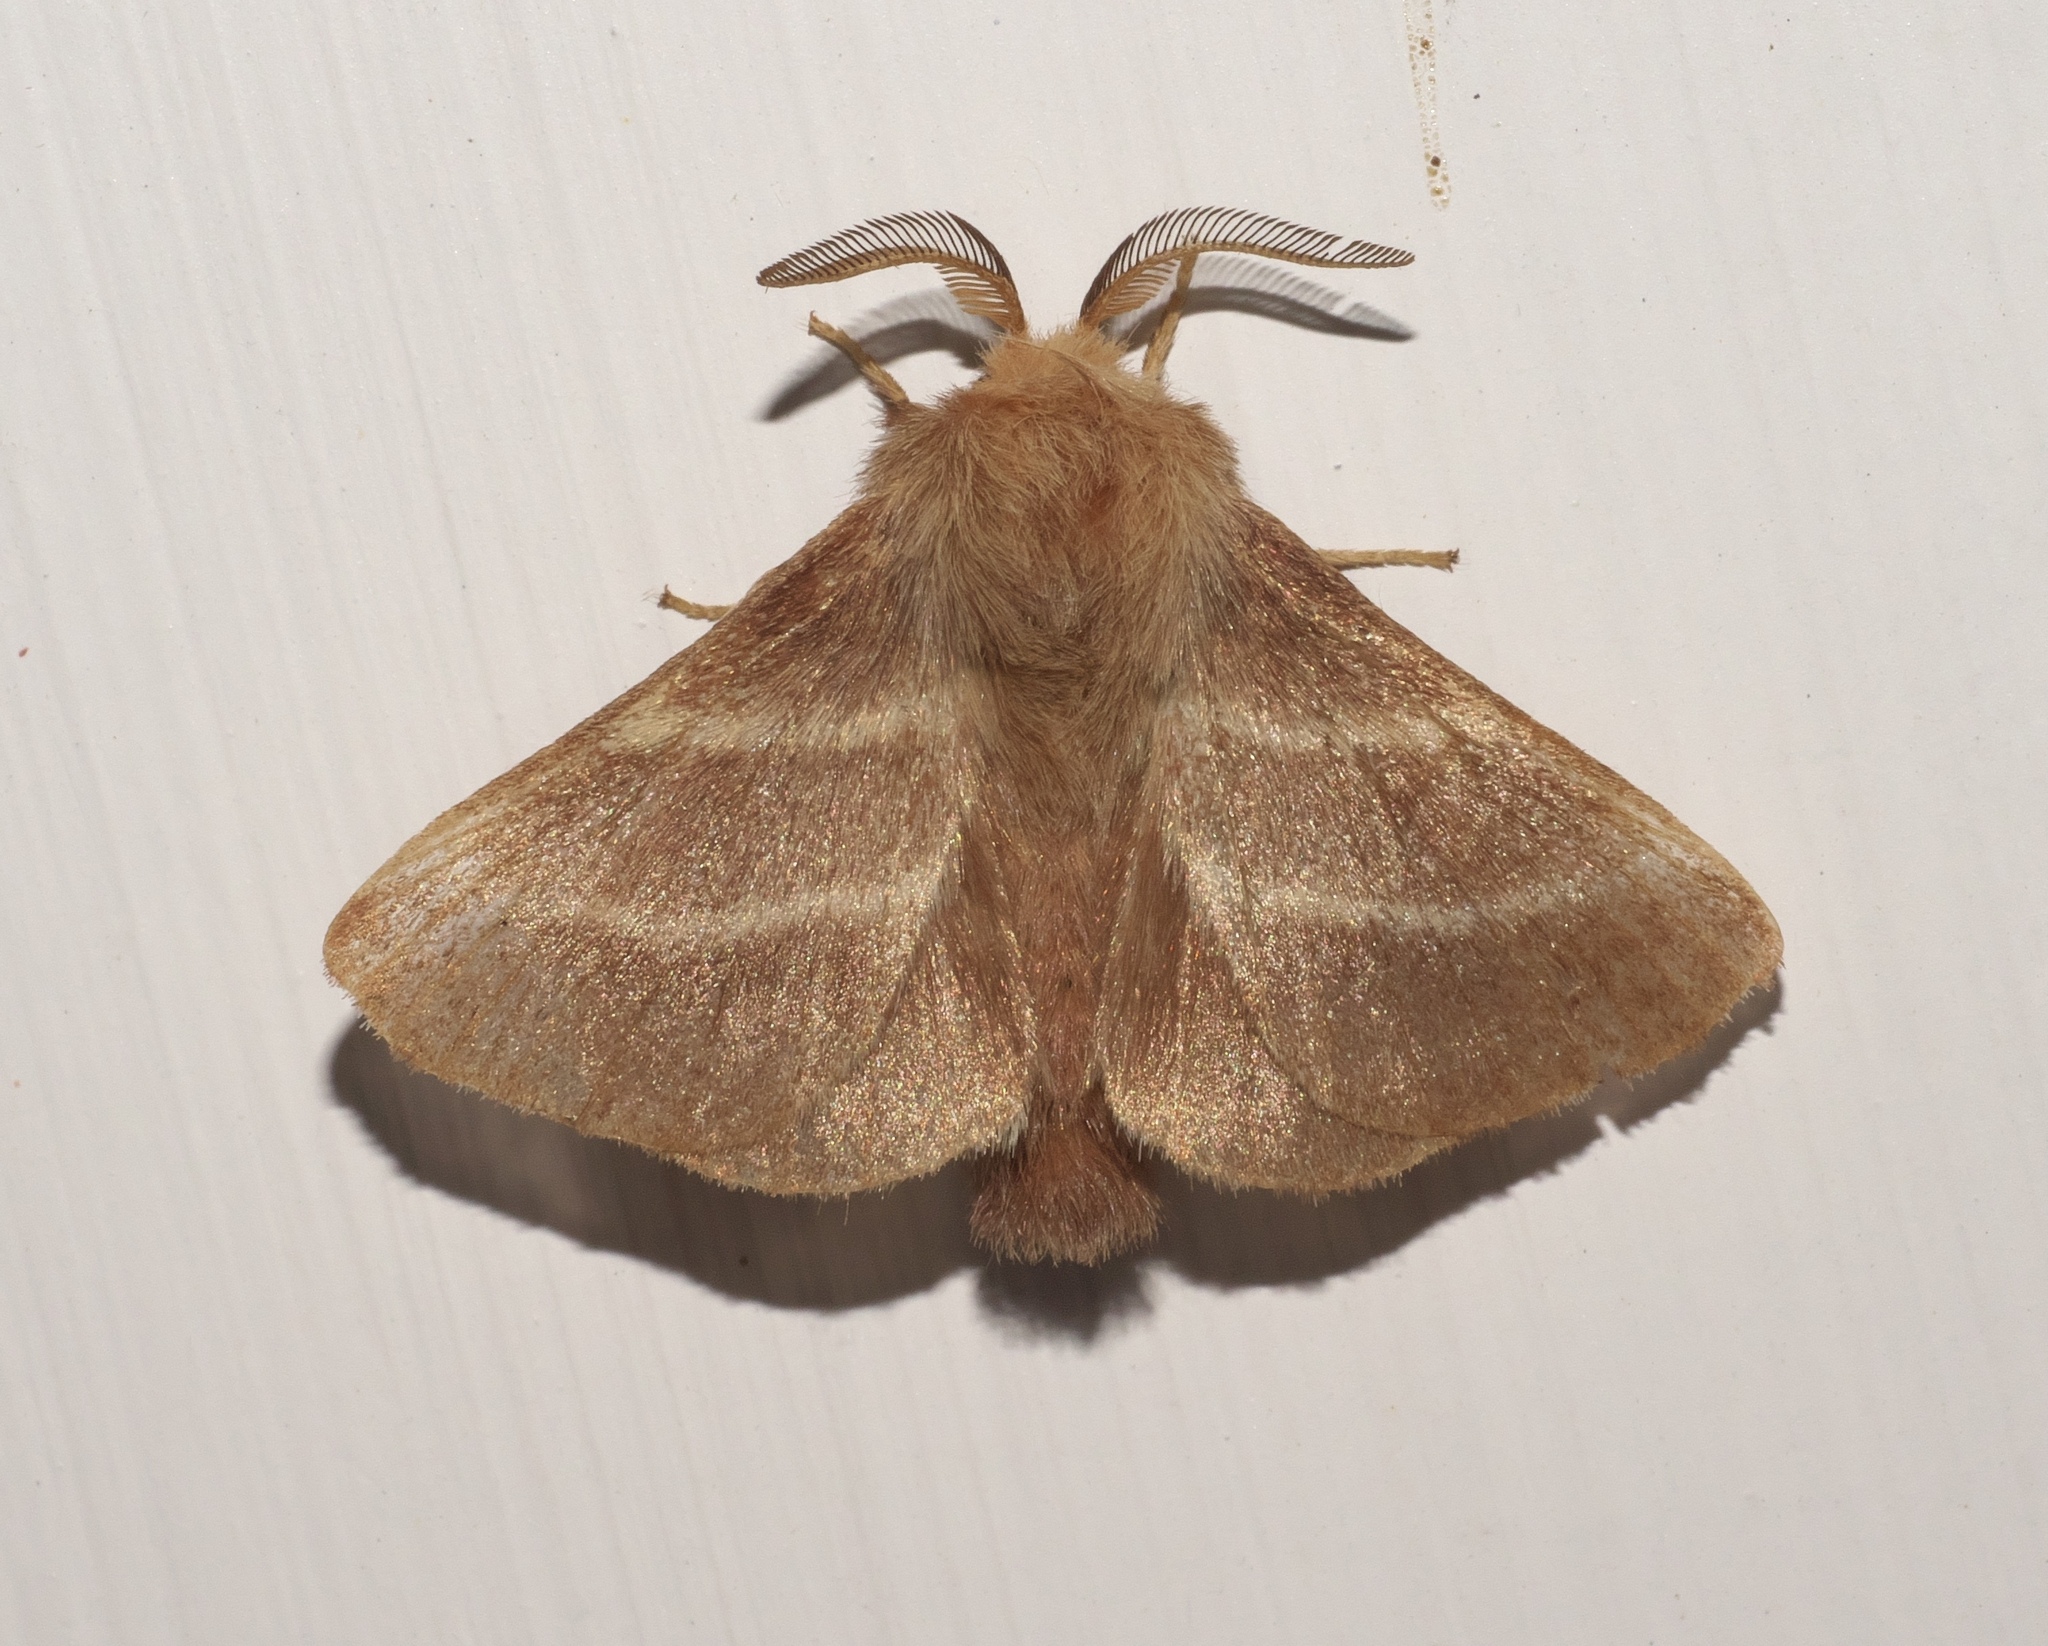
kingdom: Animalia
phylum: Arthropoda
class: Insecta
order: Lepidoptera
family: Lasiocampidae
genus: Malacosoma
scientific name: Malacosoma americana
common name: Eastern tent caterpillar moth
